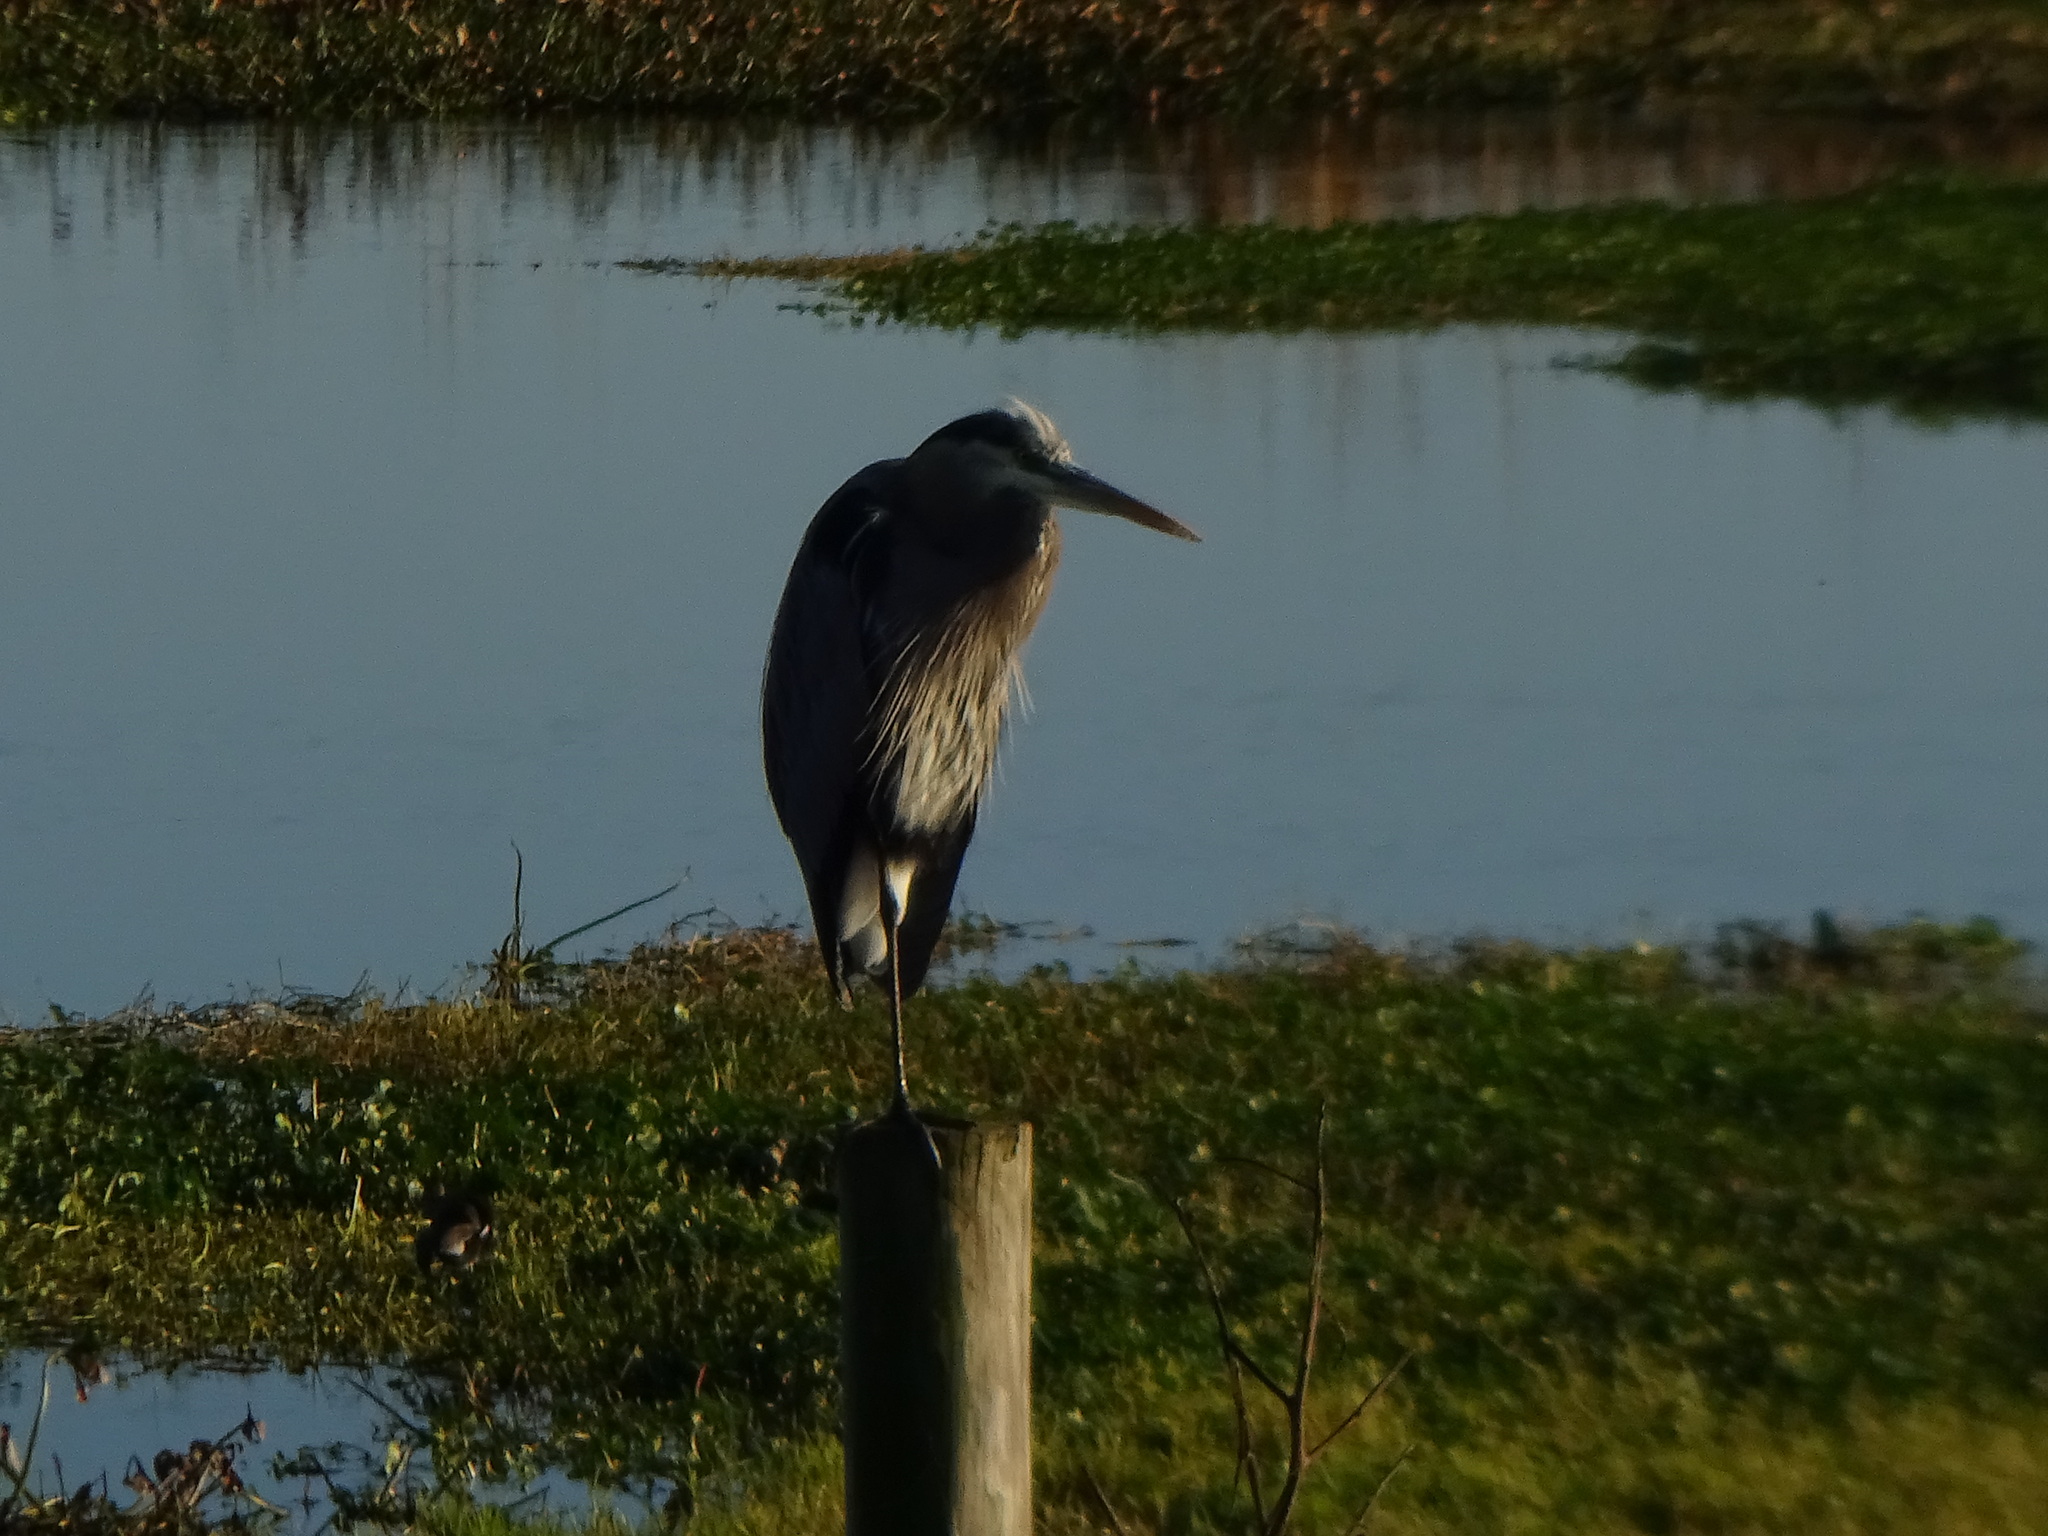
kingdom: Animalia
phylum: Chordata
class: Aves
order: Pelecaniformes
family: Ardeidae
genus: Ardea
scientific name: Ardea herodias
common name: Great blue heron
